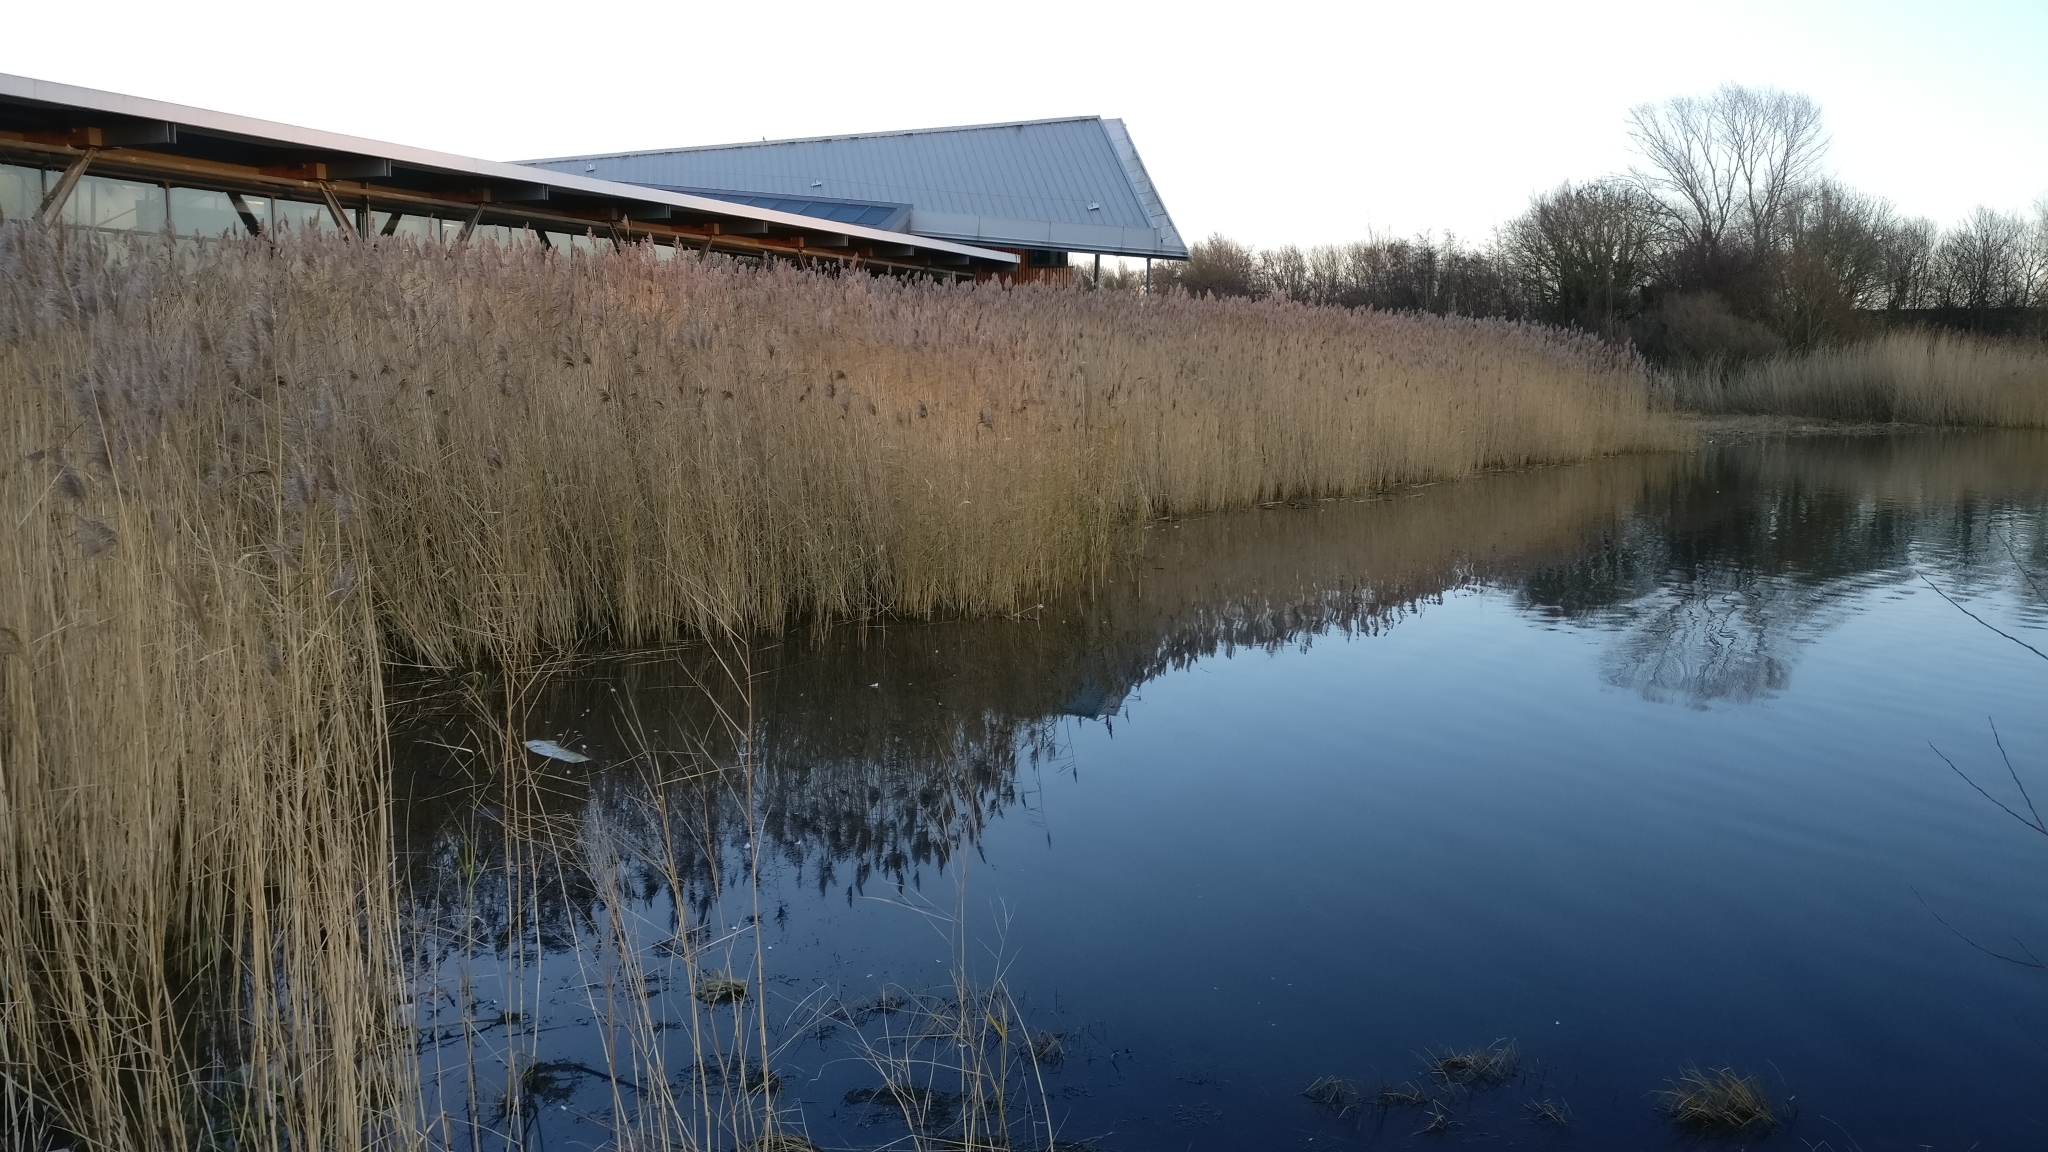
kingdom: Plantae
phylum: Tracheophyta
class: Liliopsida
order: Poales
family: Poaceae
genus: Phragmites
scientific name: Phragmites australis
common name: Common reed
